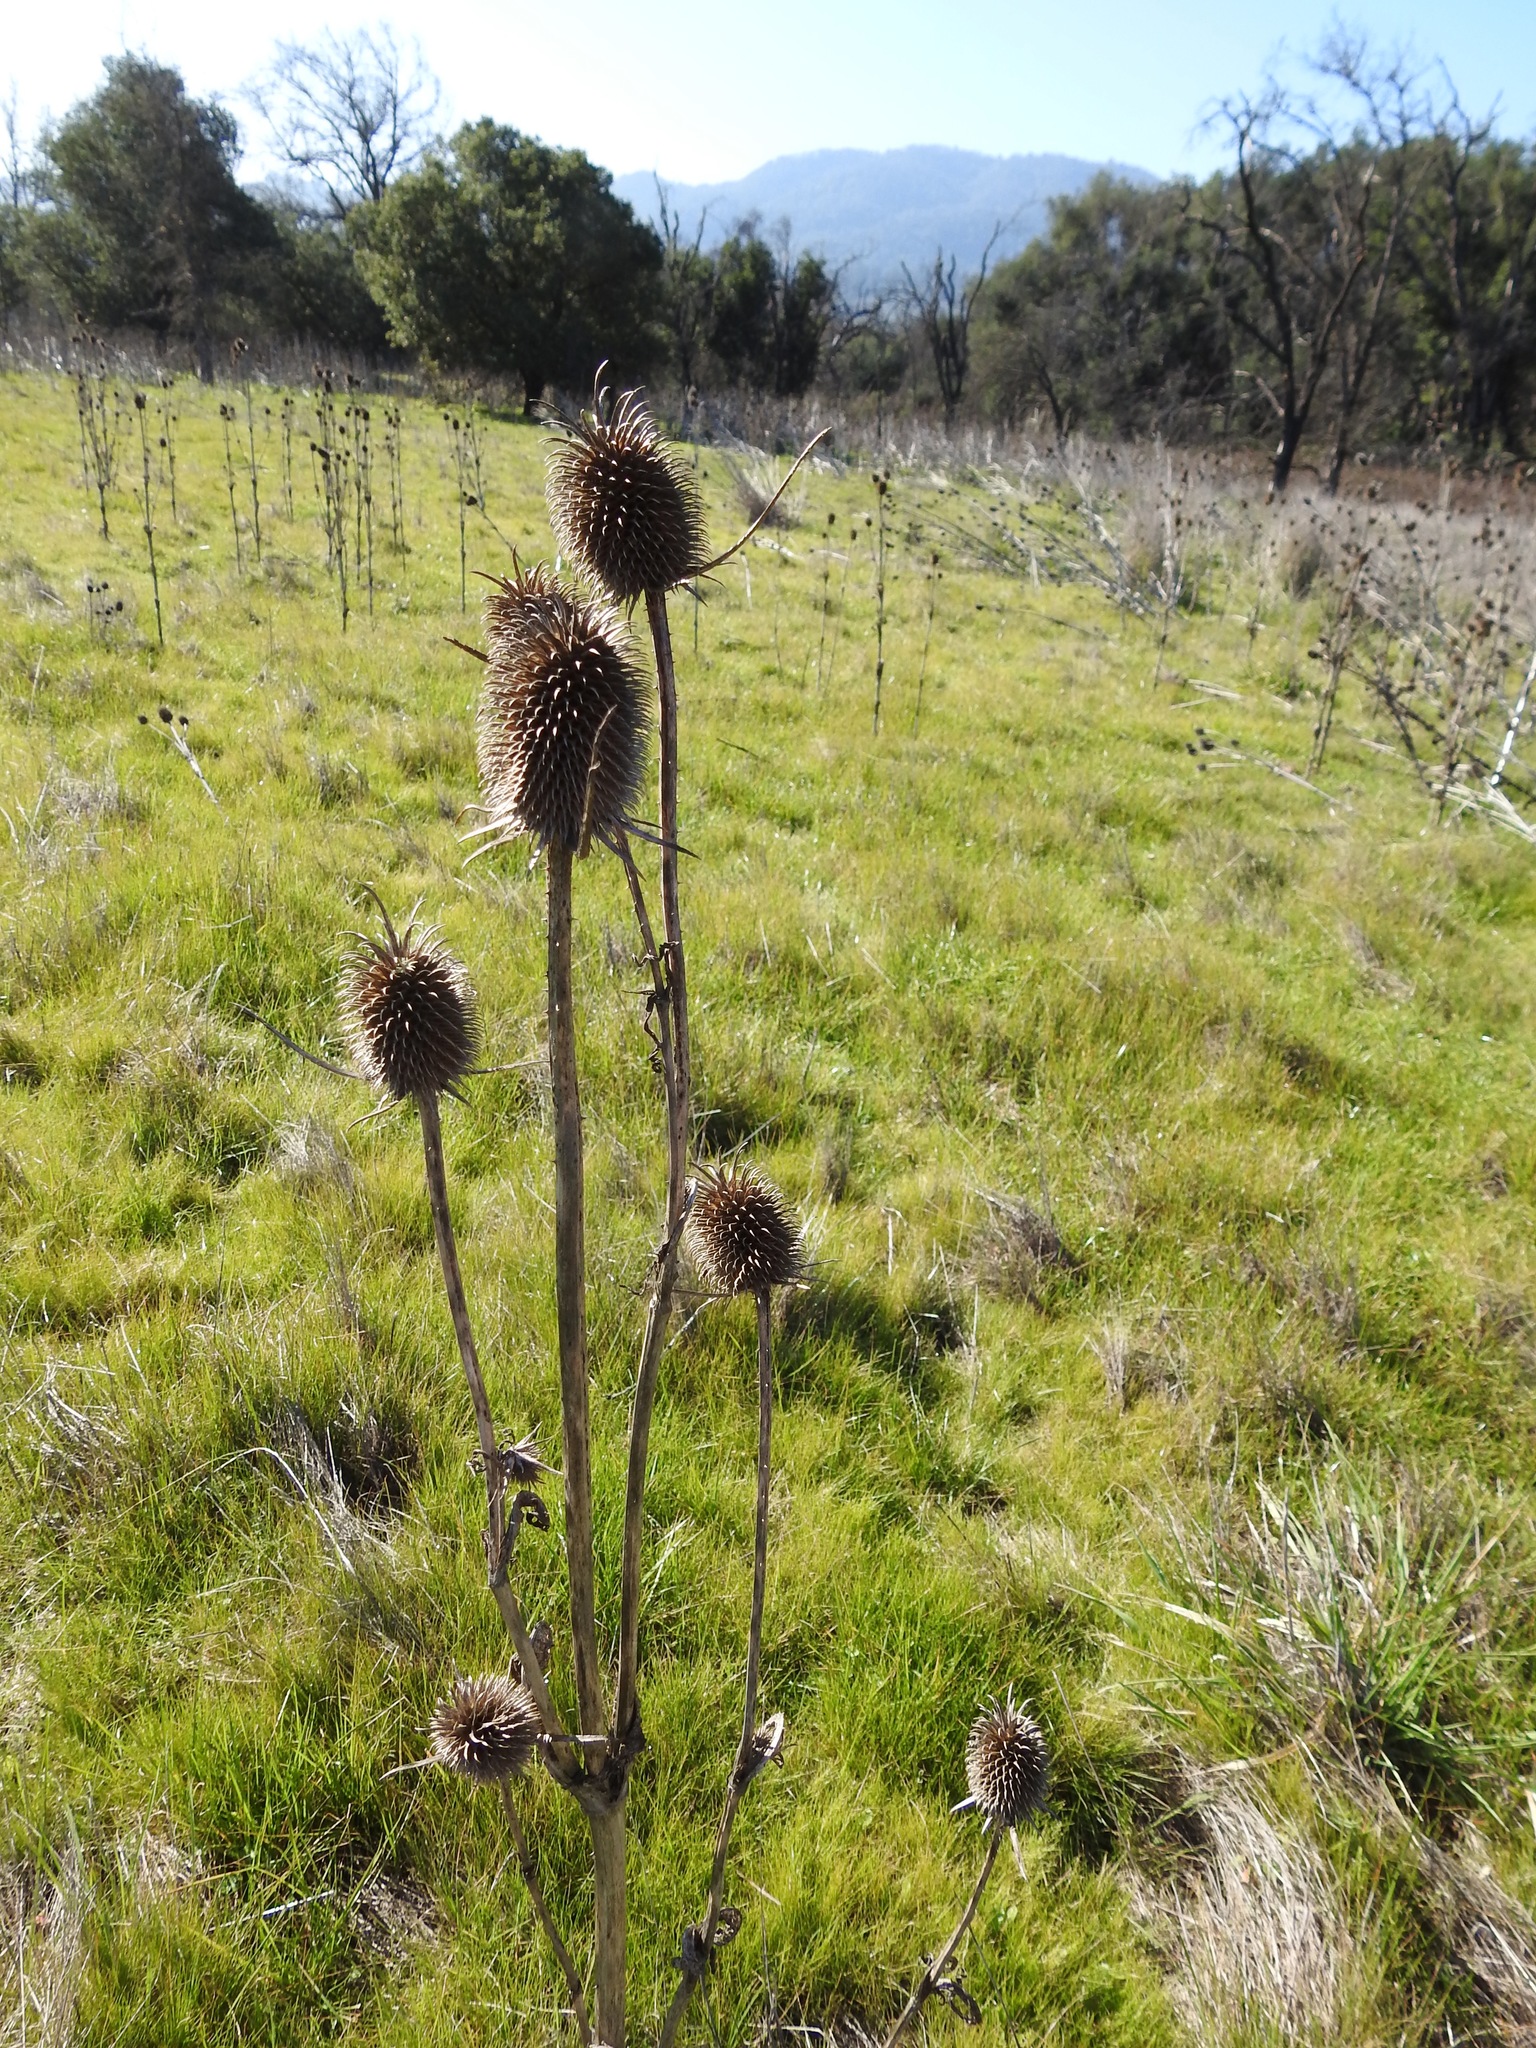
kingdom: Plantae
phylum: Tracheophyta
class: Magnoliopsida
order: Dipsacales
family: Caprifoliaceae
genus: Dipsacus
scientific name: Dipsacus sativus
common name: Fuller's teasel
